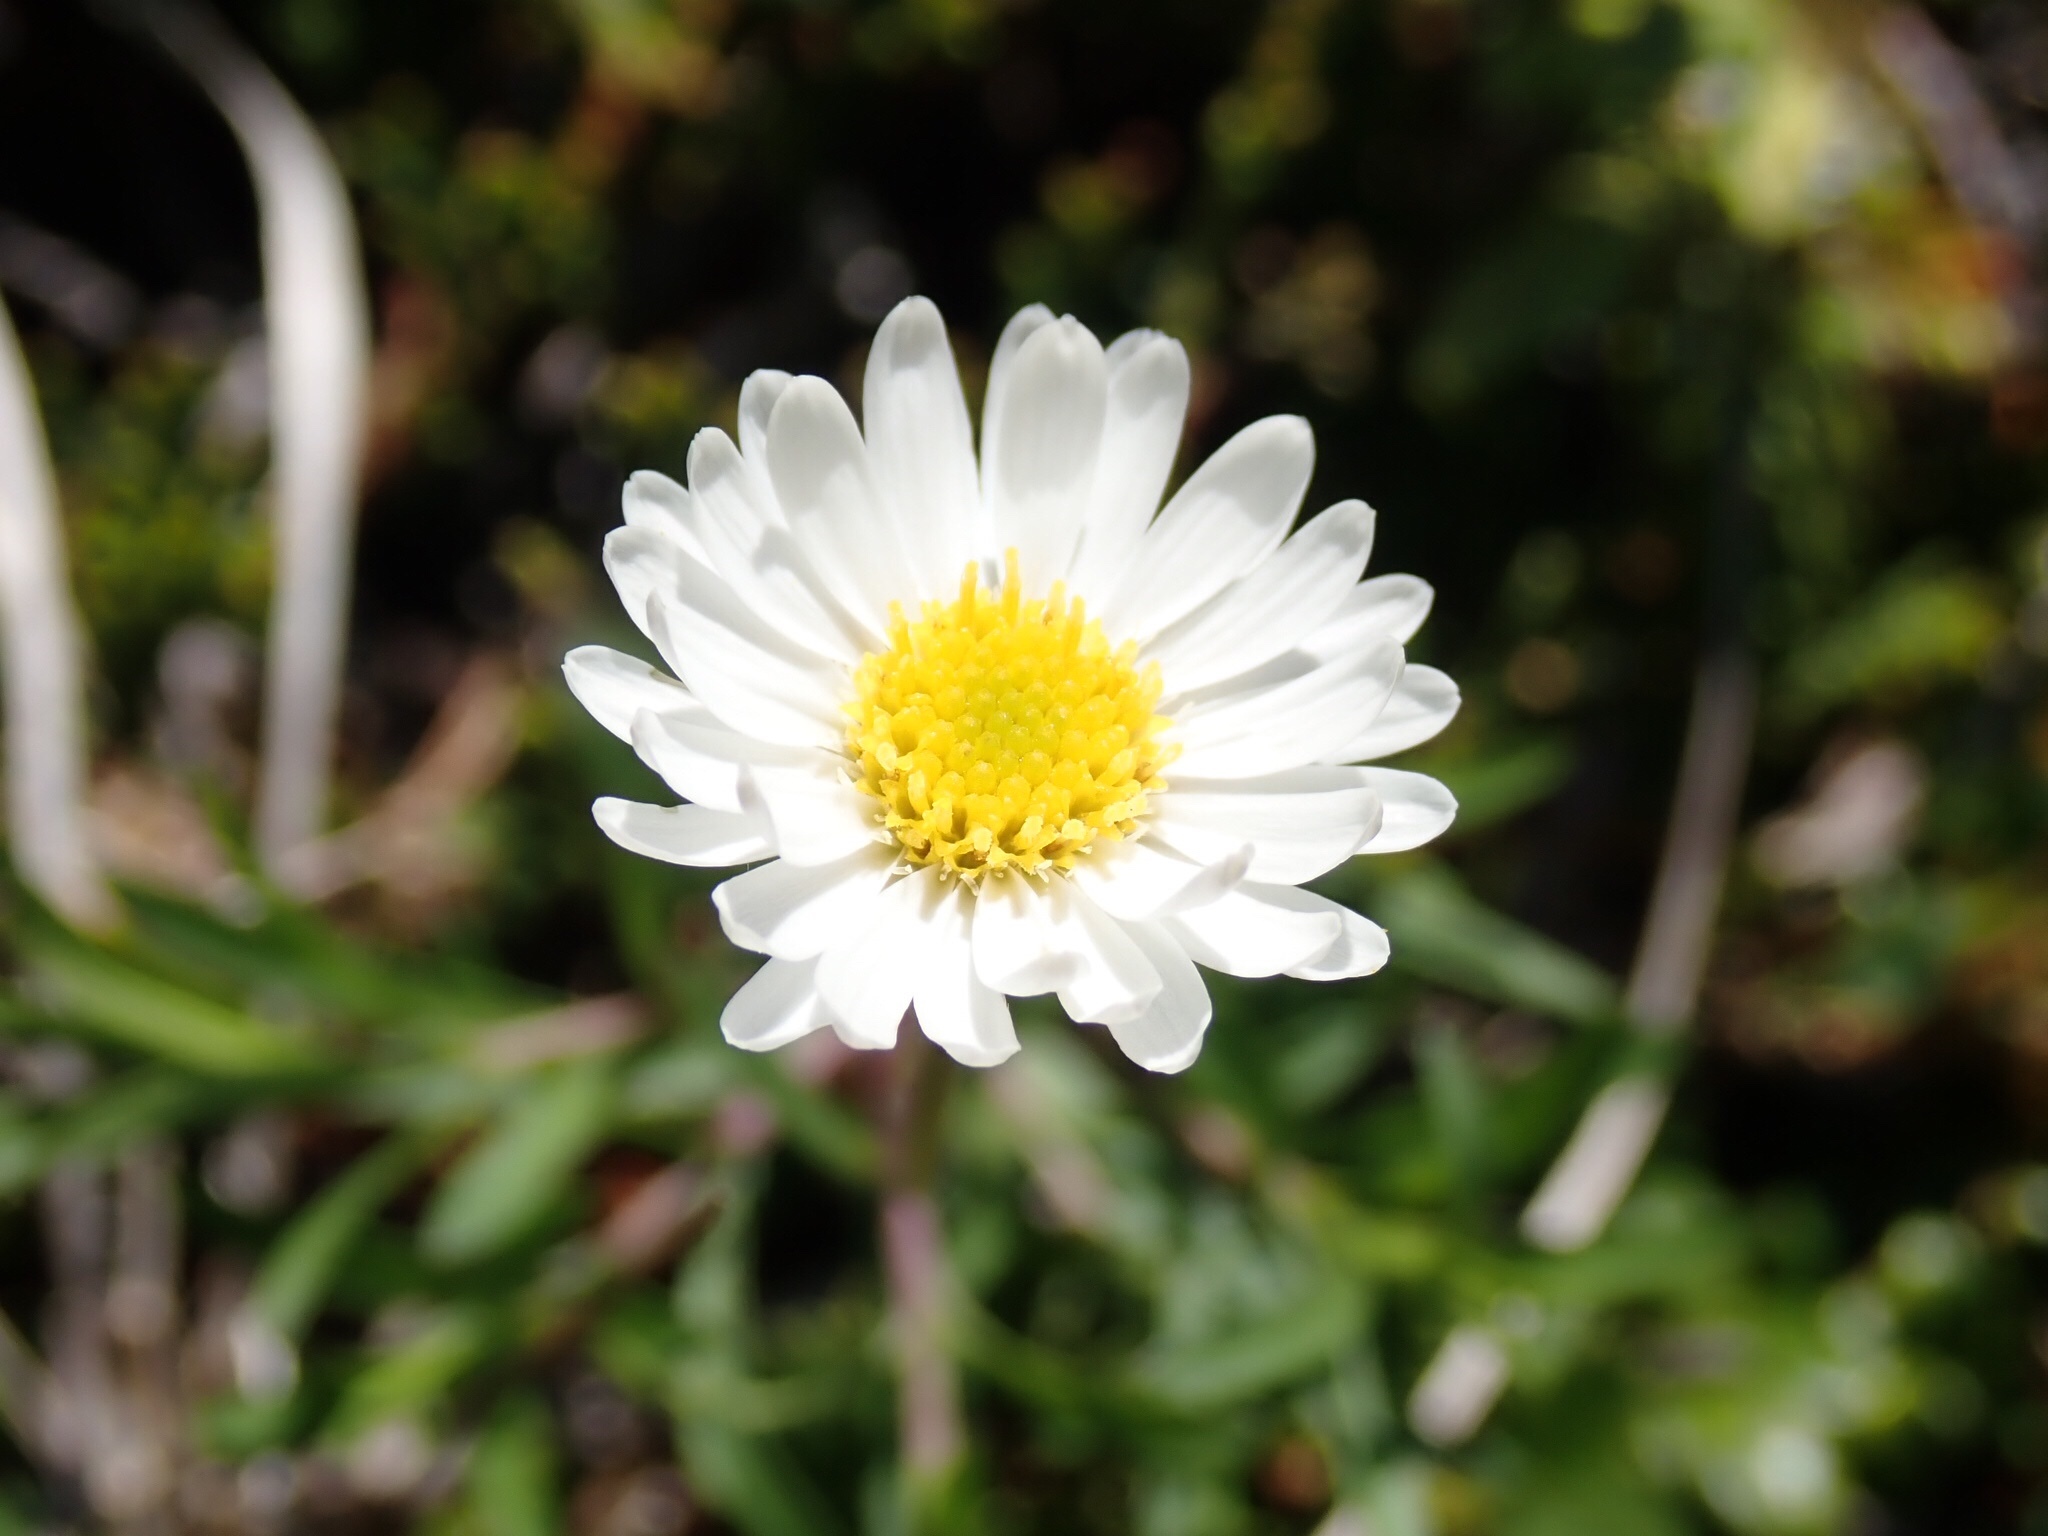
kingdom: Plantae
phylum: Tracheophyta
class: Magnoliopsida
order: Asterales
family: Asteraceae
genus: Erigeron
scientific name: Erigeron hyssopifolius
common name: Daisy fleabane
